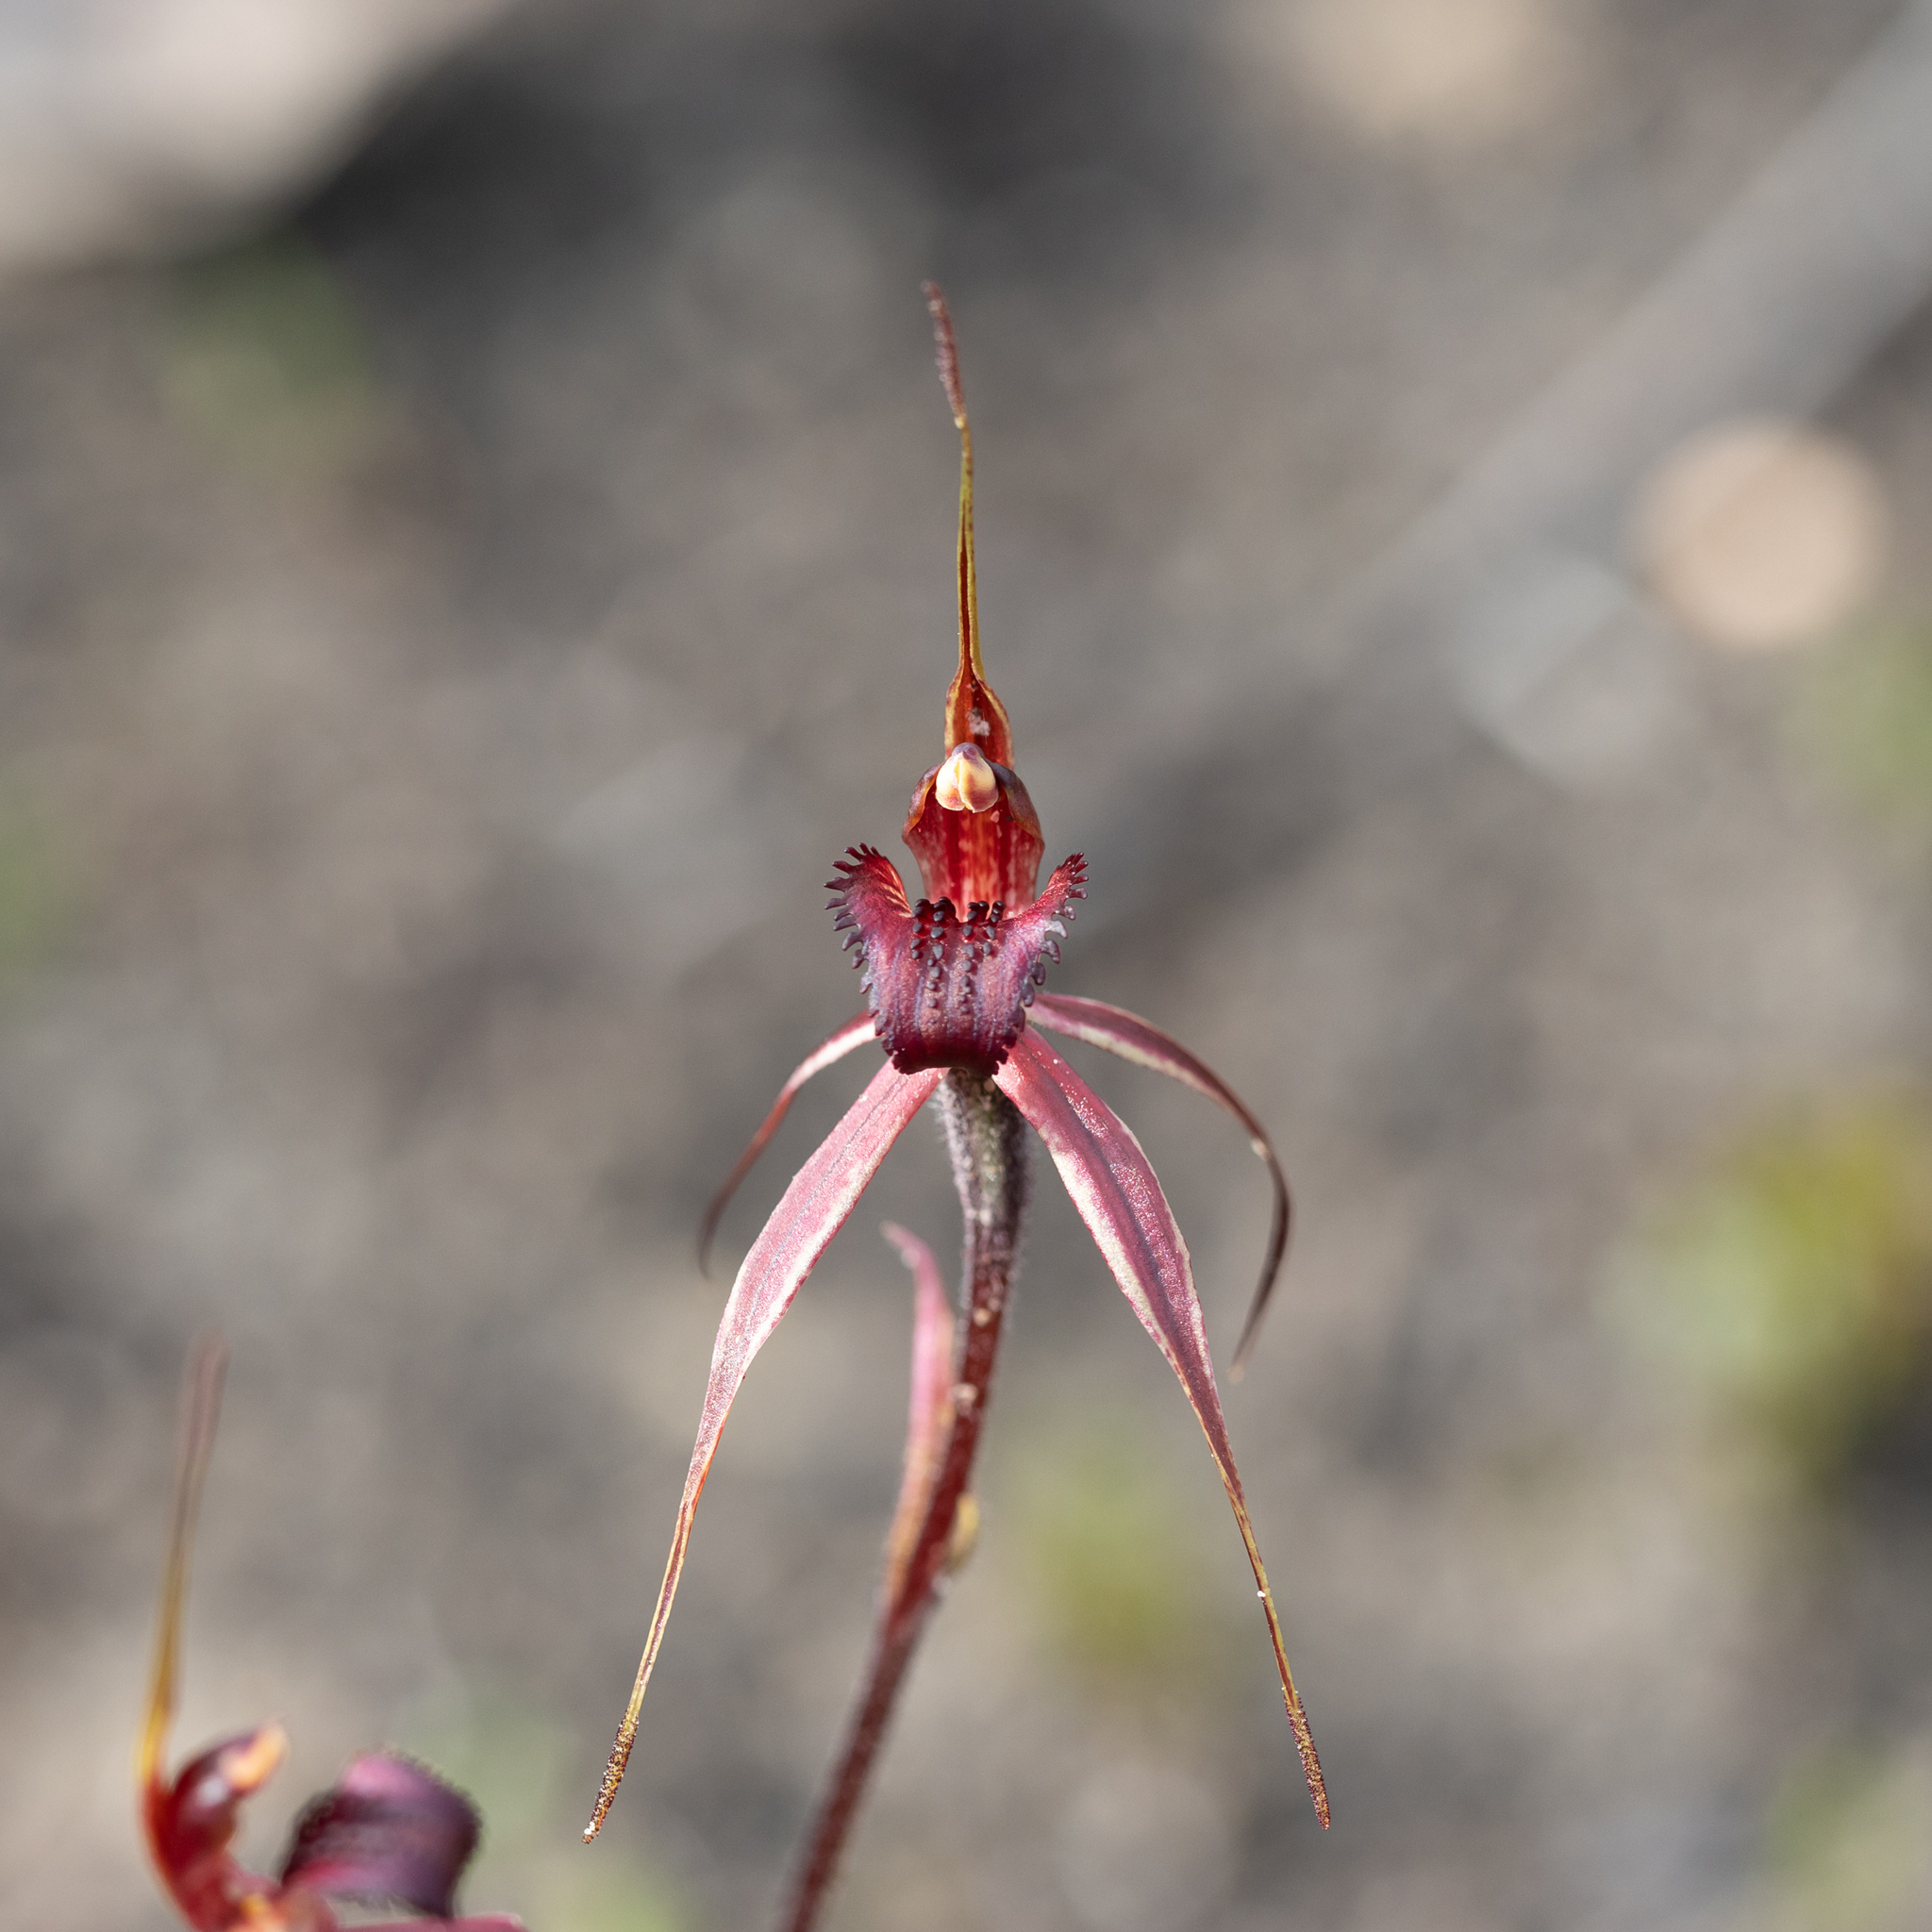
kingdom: Plantae
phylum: Tracheophyta
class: Liliopsida
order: Asparagales
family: Orchidaceae
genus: Caladenia
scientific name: Caladenia reticulata
